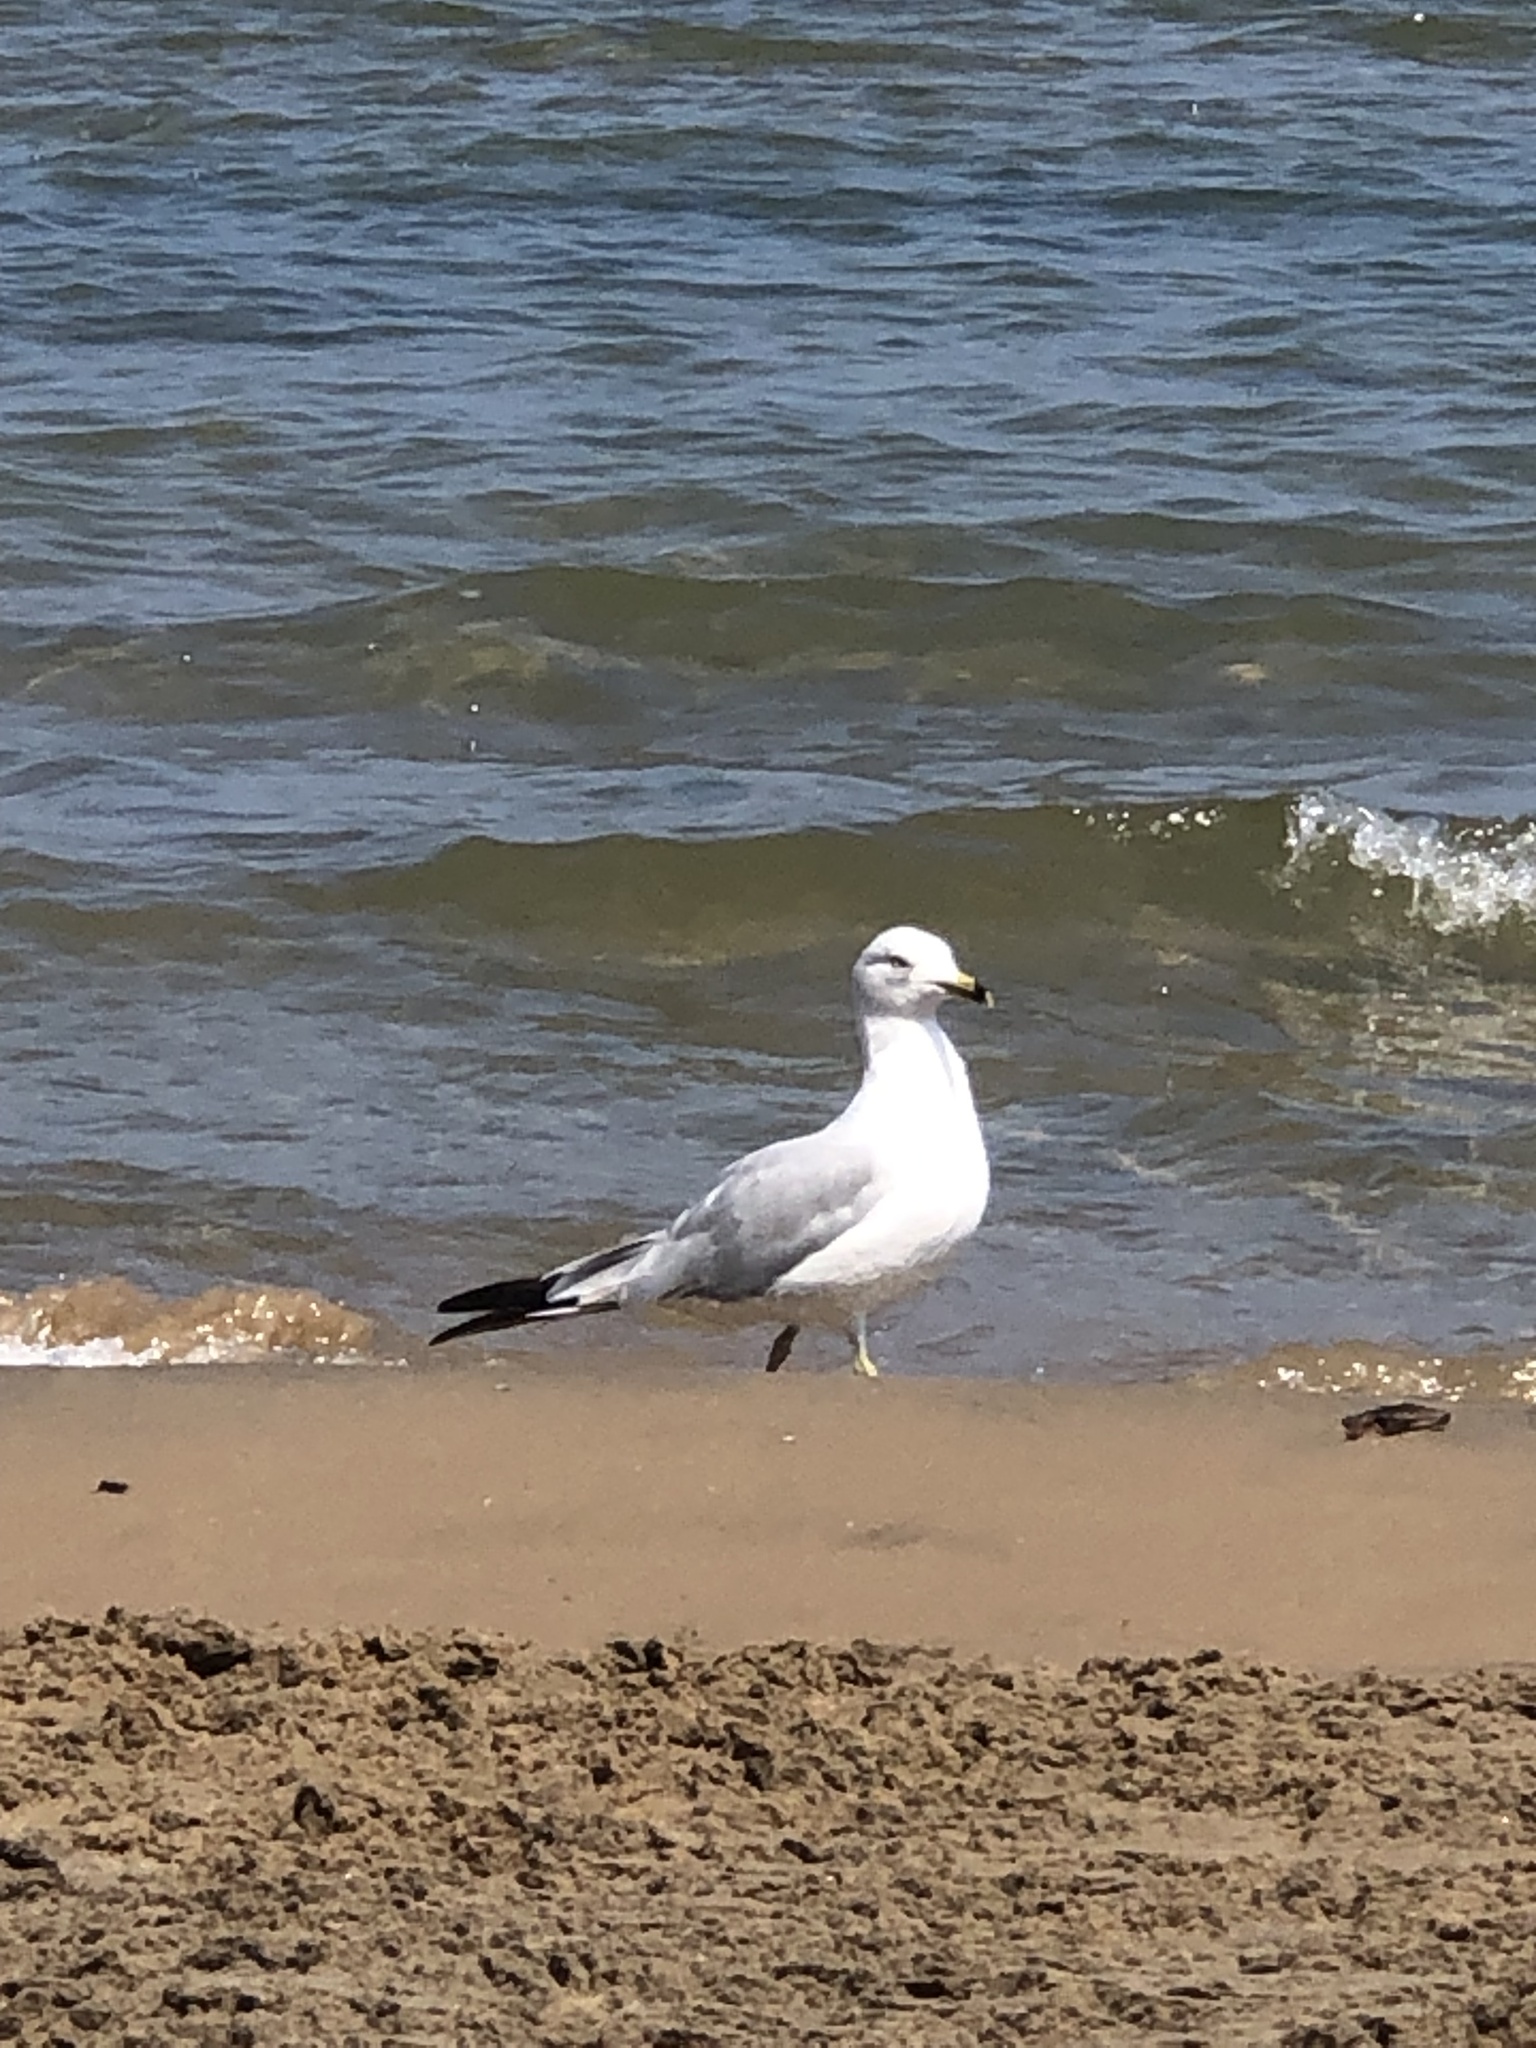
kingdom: Animalia
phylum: Chordata
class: Aves
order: Charadriiformes
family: Laridae
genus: Larus
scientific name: Larus delawarensis
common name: Ring-billed gull
